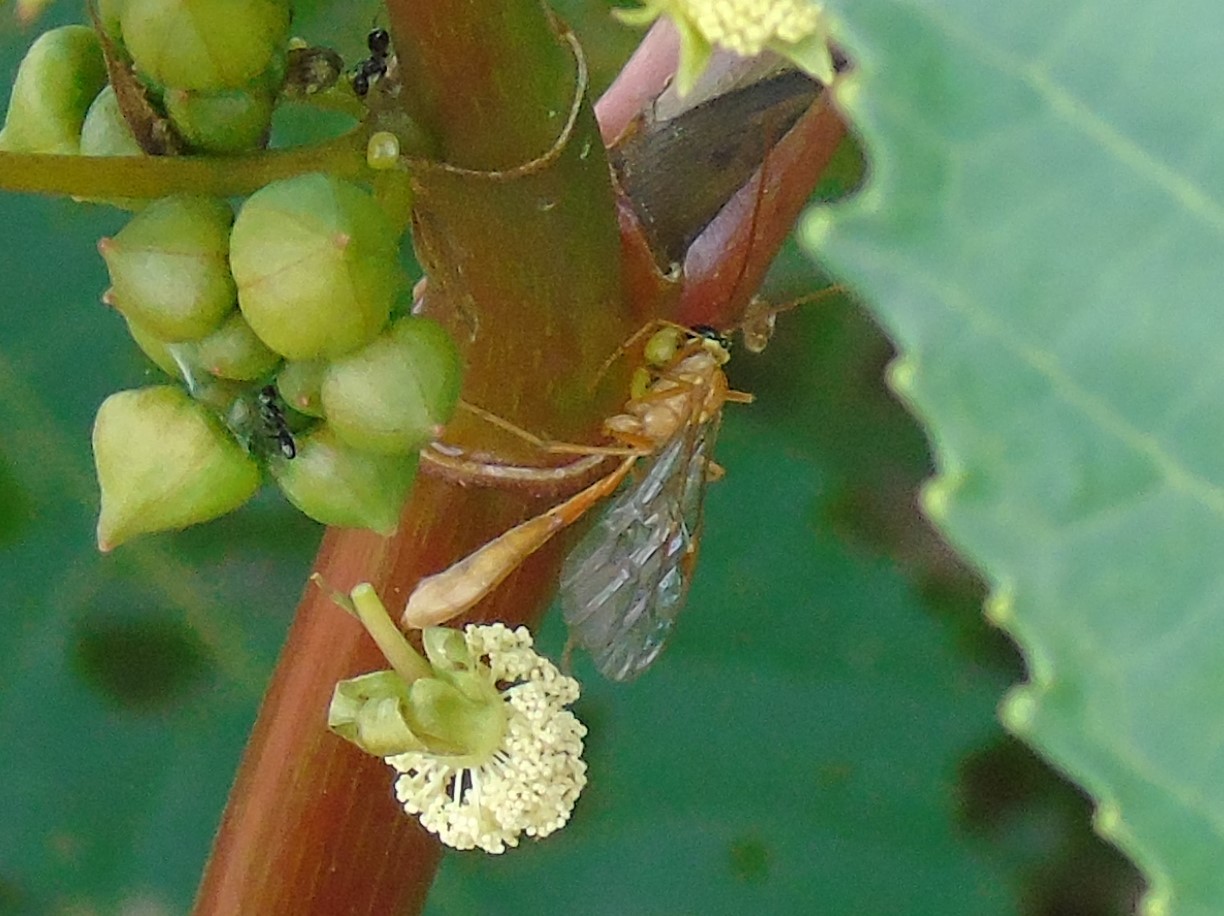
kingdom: Animalia
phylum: Arthropoda
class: Insecta
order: Hymenoptera
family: Ichneumonidae
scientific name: Ichneumonidae
